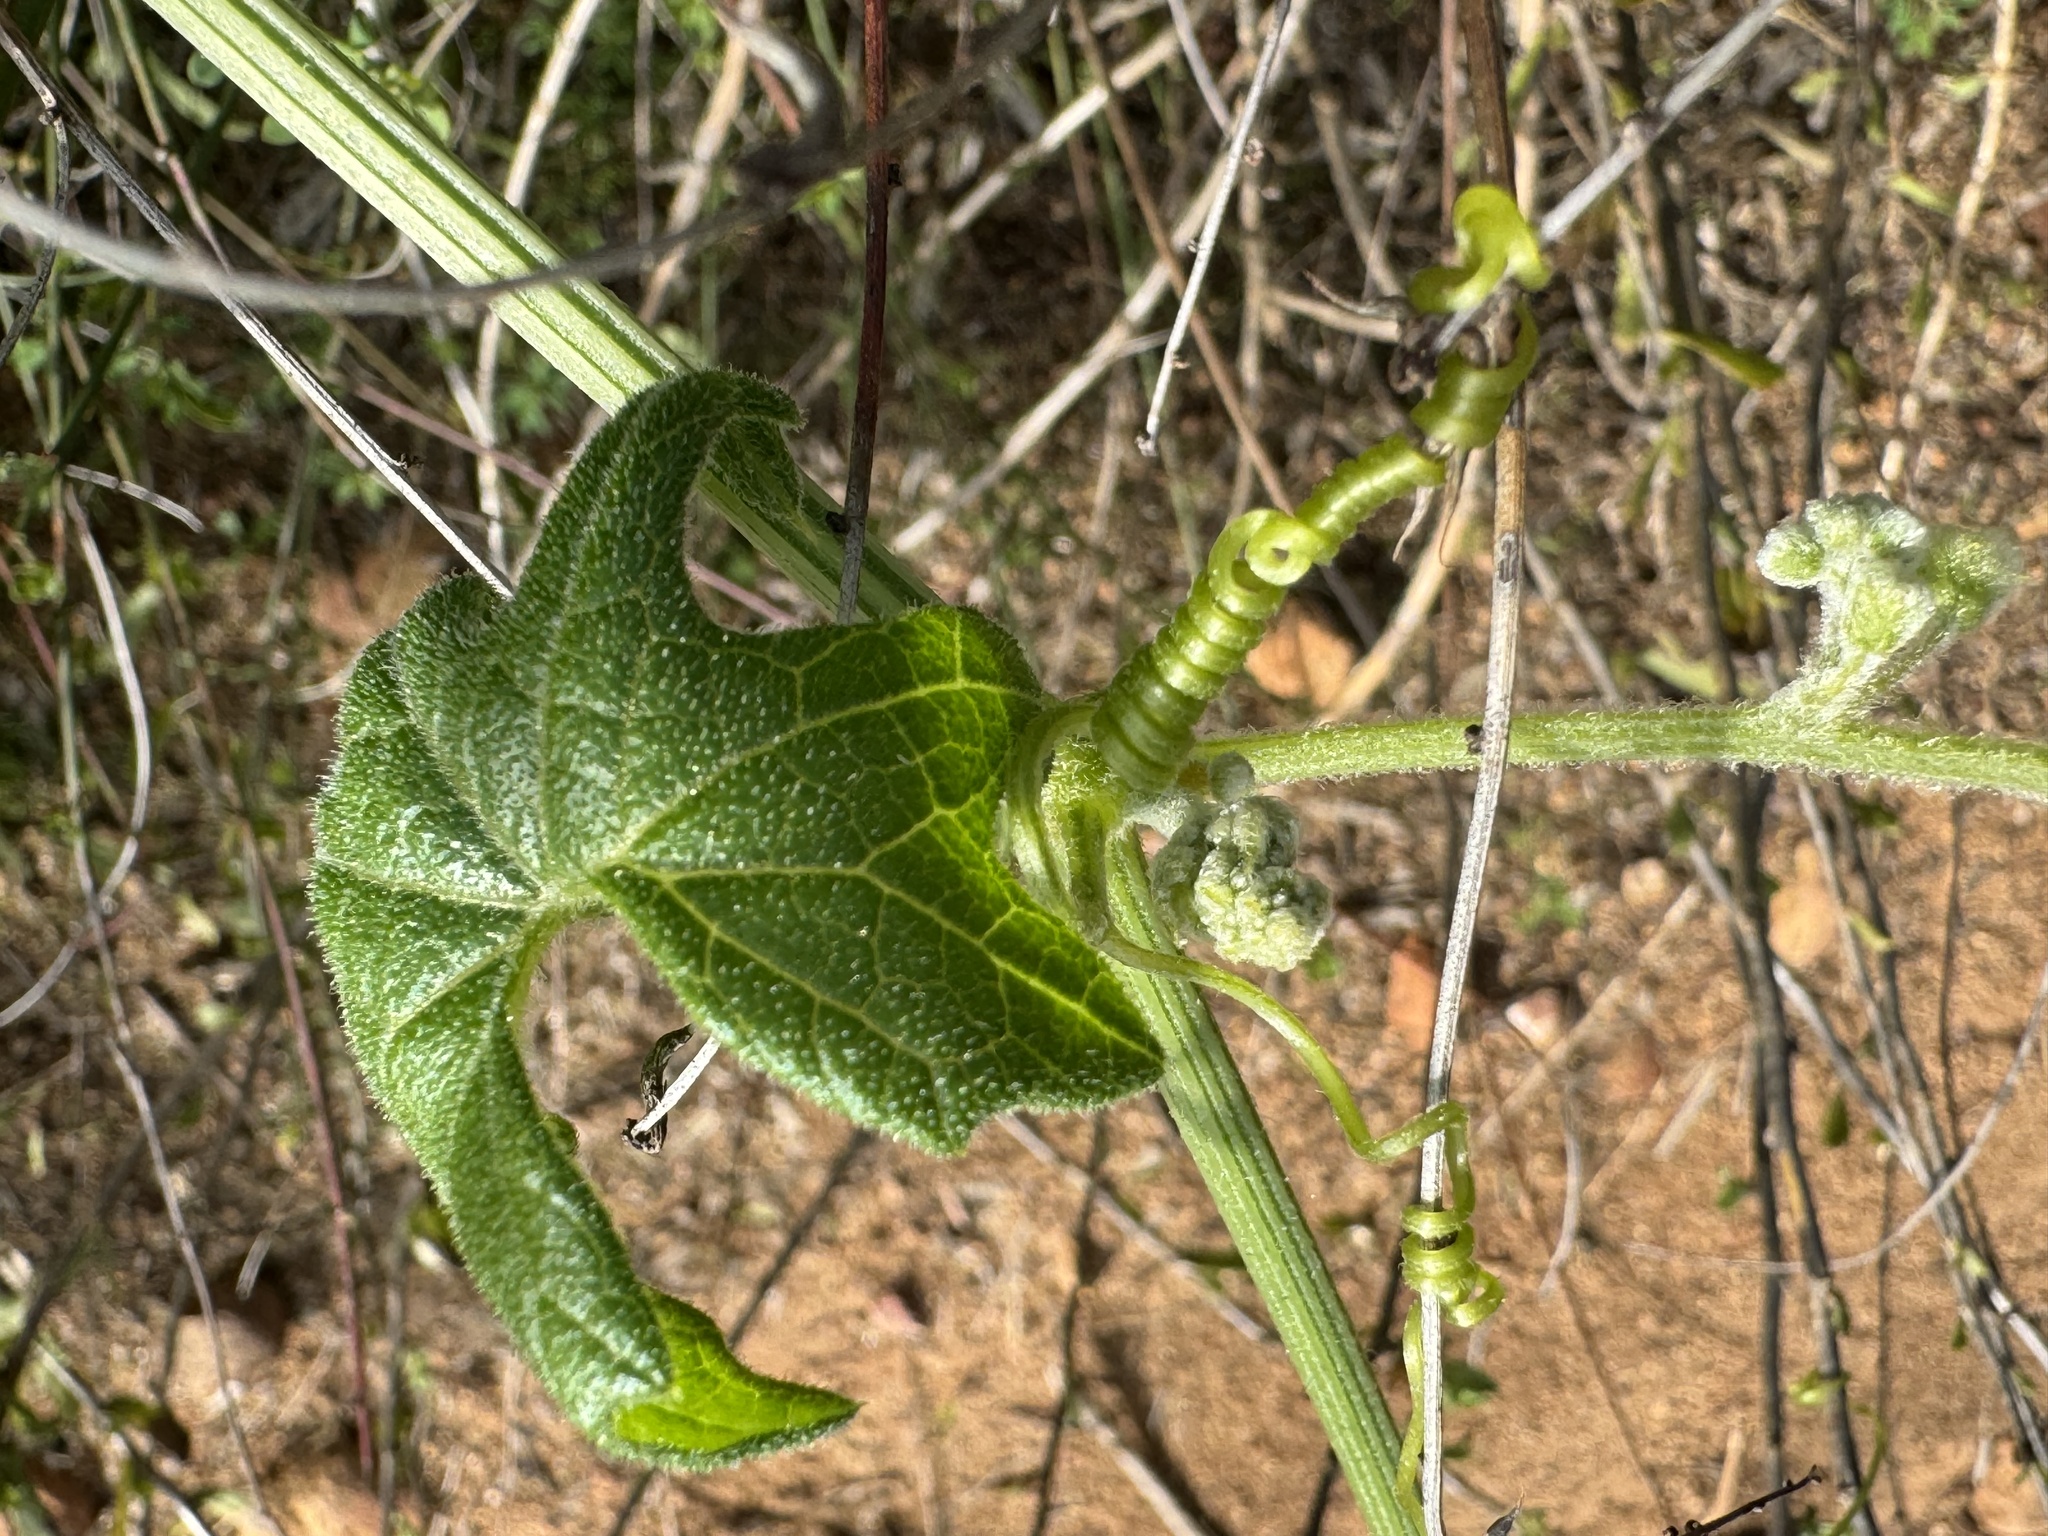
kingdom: Plantae
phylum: Tracheophyta
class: Magnoliopsida
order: Cucurbitales
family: Cucurbitaceae
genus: Marah
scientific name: Marah macrocarpa
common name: Cucamonga manroot
